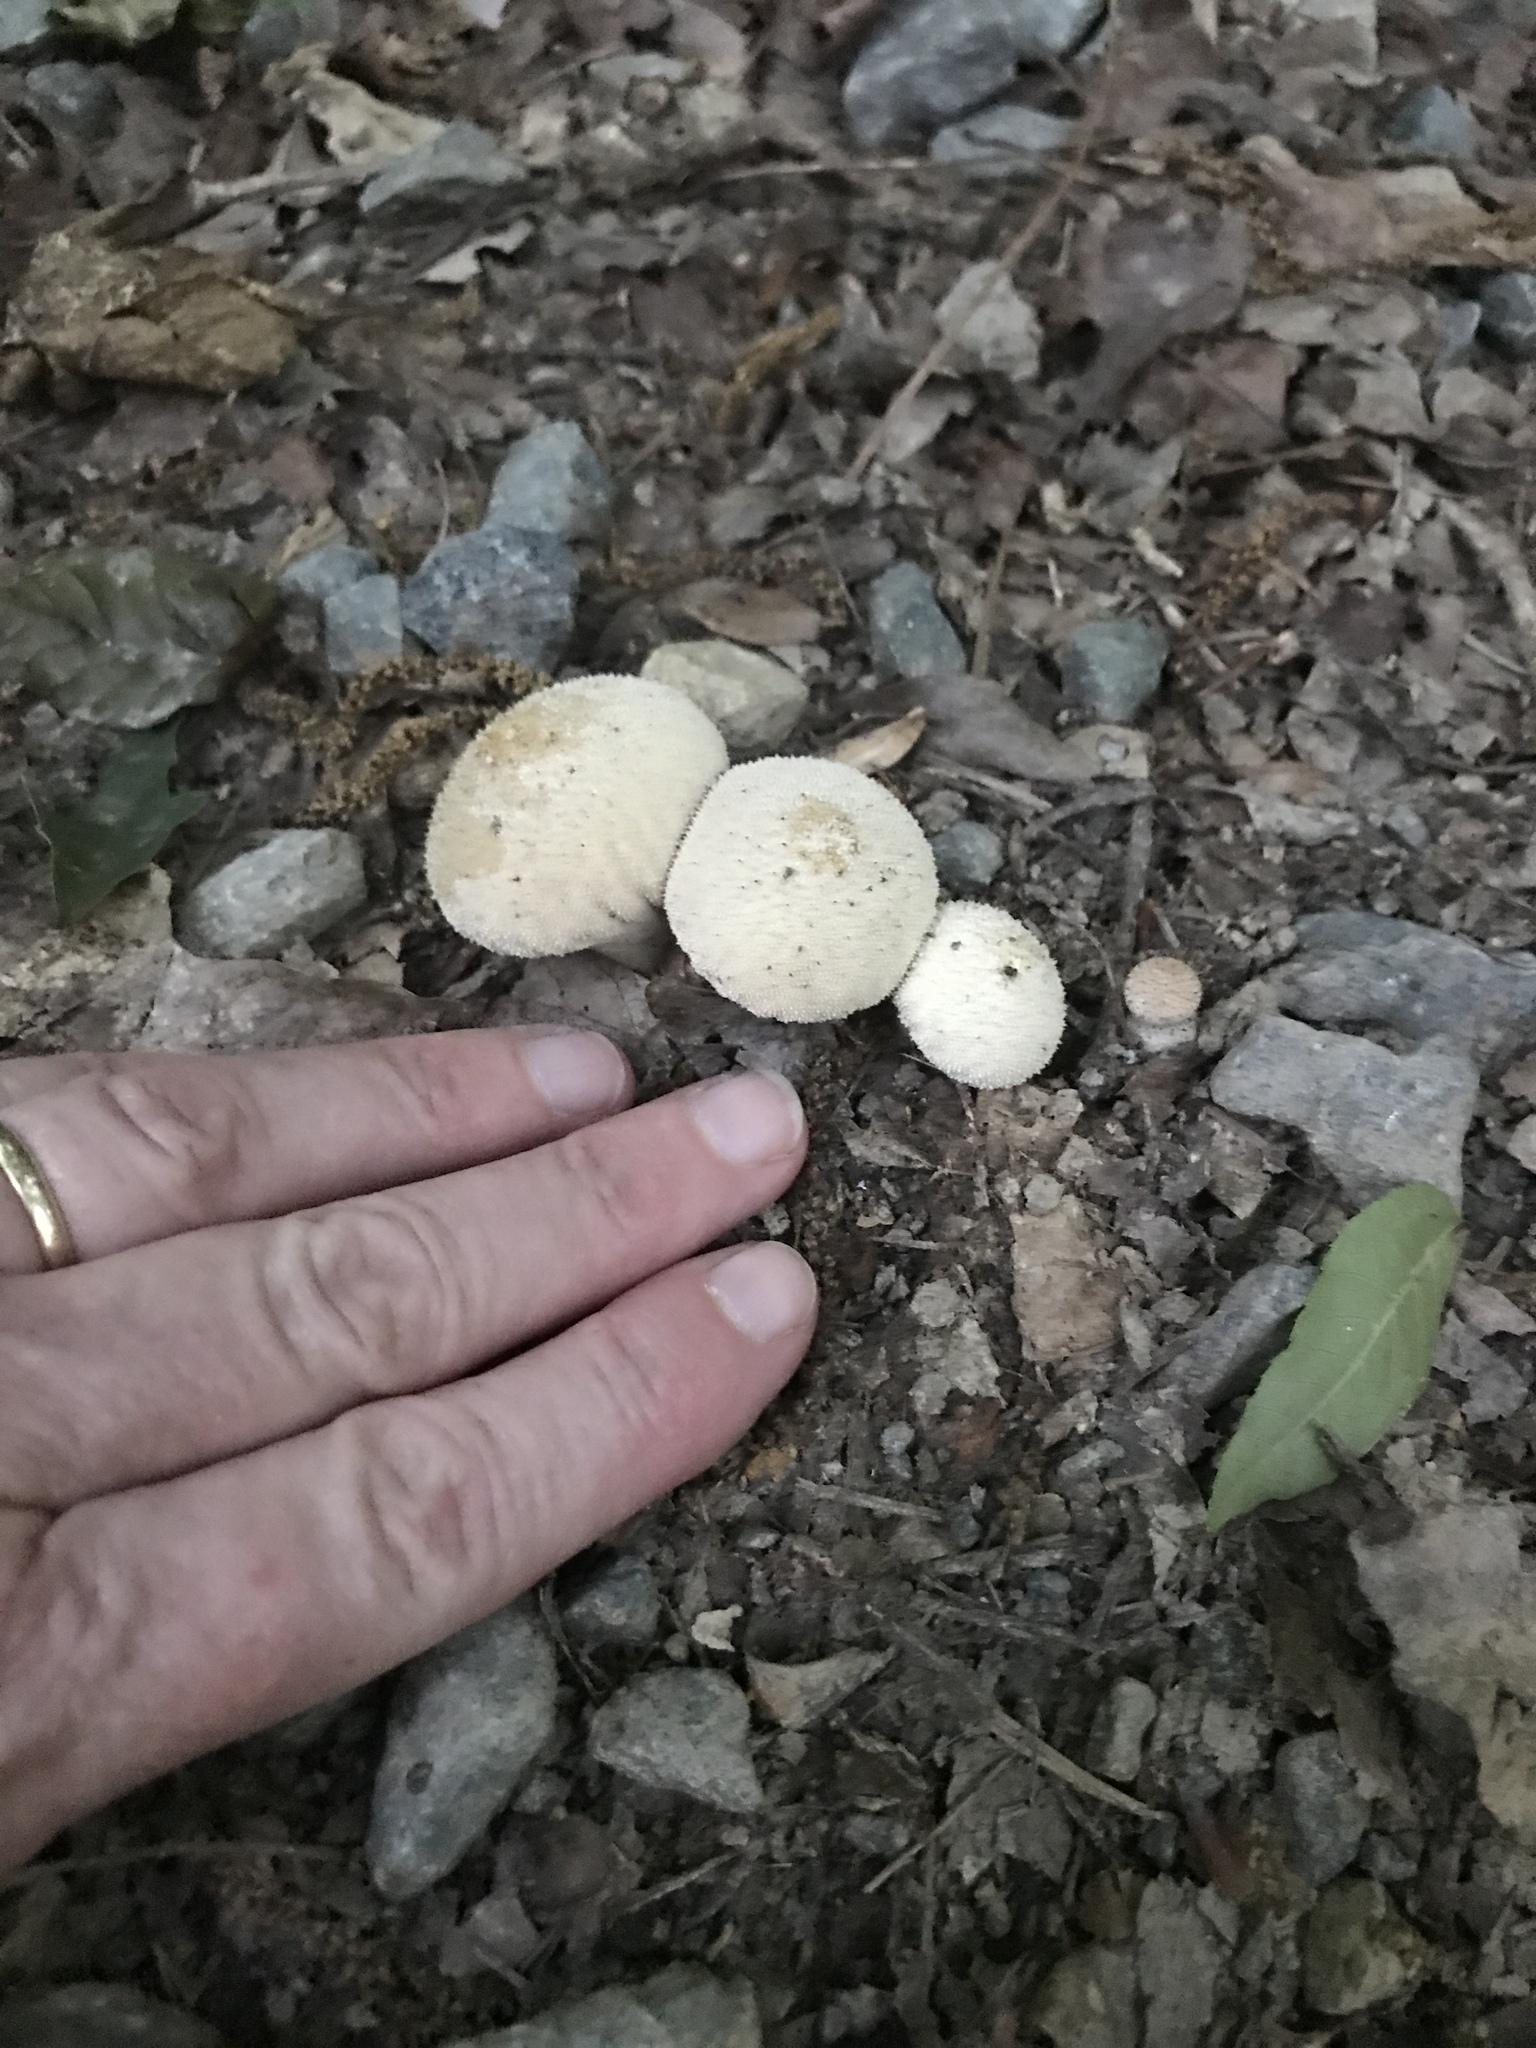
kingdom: Fungi
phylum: Basidiomycota
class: Agaricomycetes
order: Agaricales
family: Lycoperdaceae
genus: Lycoperdon
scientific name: Lycoperdon perlatum
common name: Common puffball
